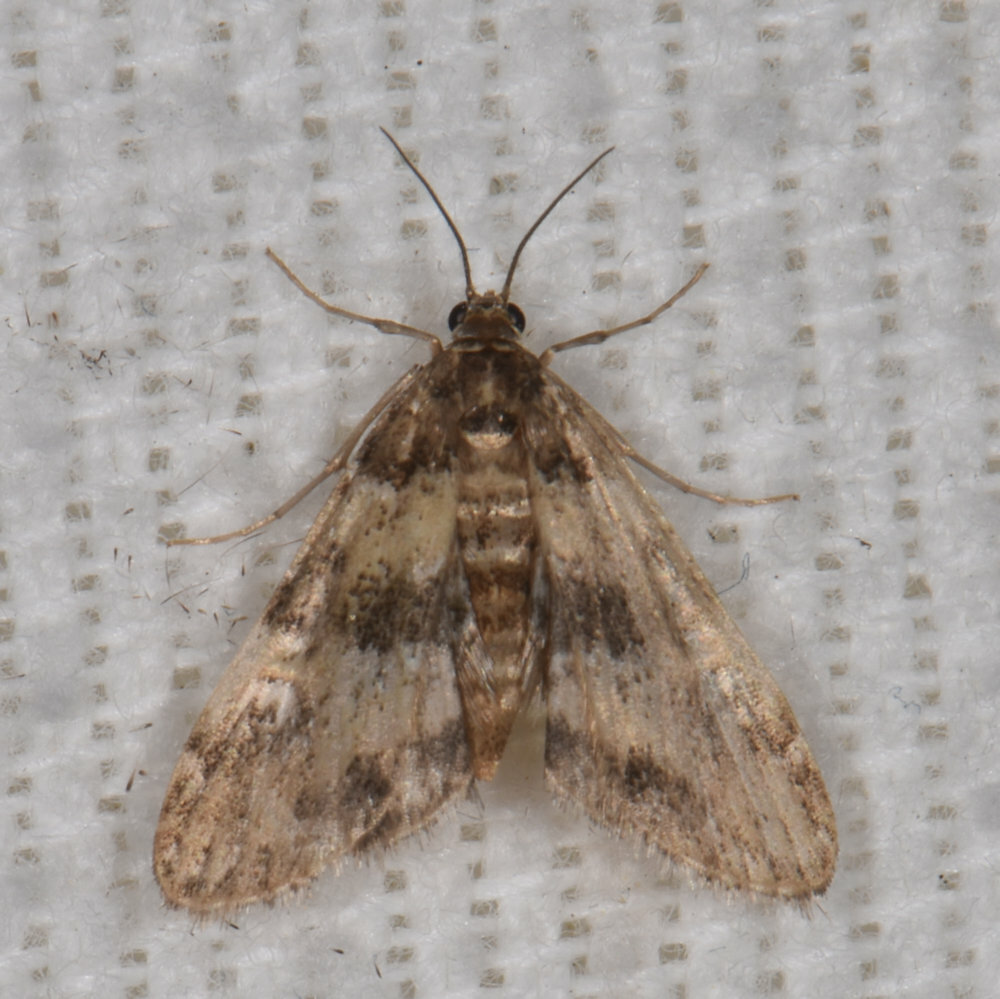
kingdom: Animalia
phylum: Arthropoda
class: Insecta
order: Lepidoptera
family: Crambidae
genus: Elophila
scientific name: Elophila obliteralis
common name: Waterlily leafcutter moth
